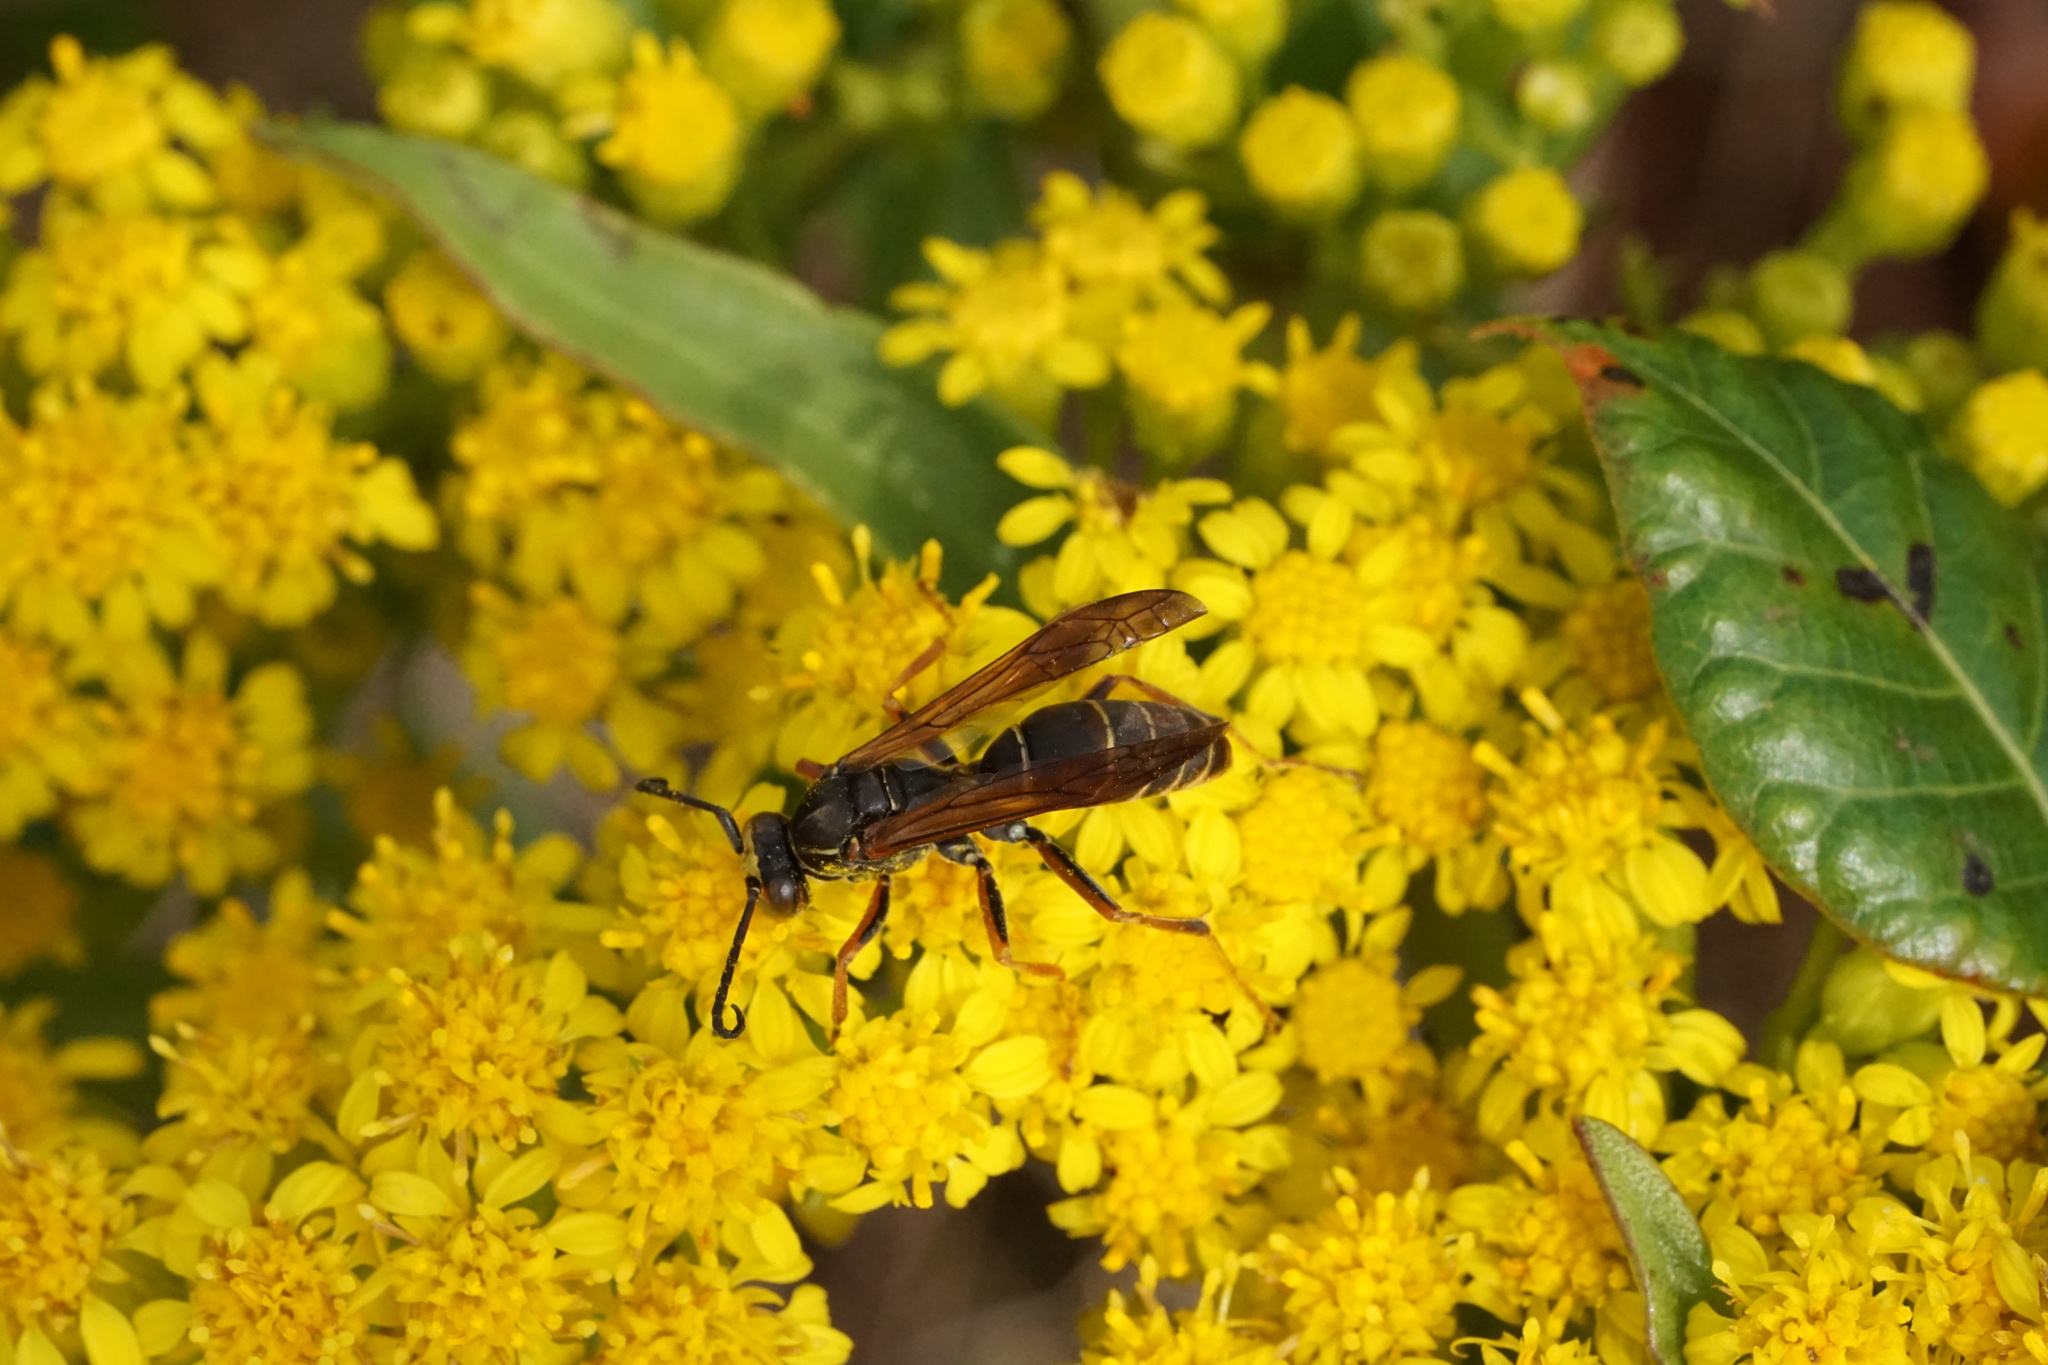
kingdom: Animalia
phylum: Arthropoda
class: Insecta
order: Hymenoptera
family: Eumenidae
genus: Polistes
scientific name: Polistes fuscatus
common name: Dark paper wasp
